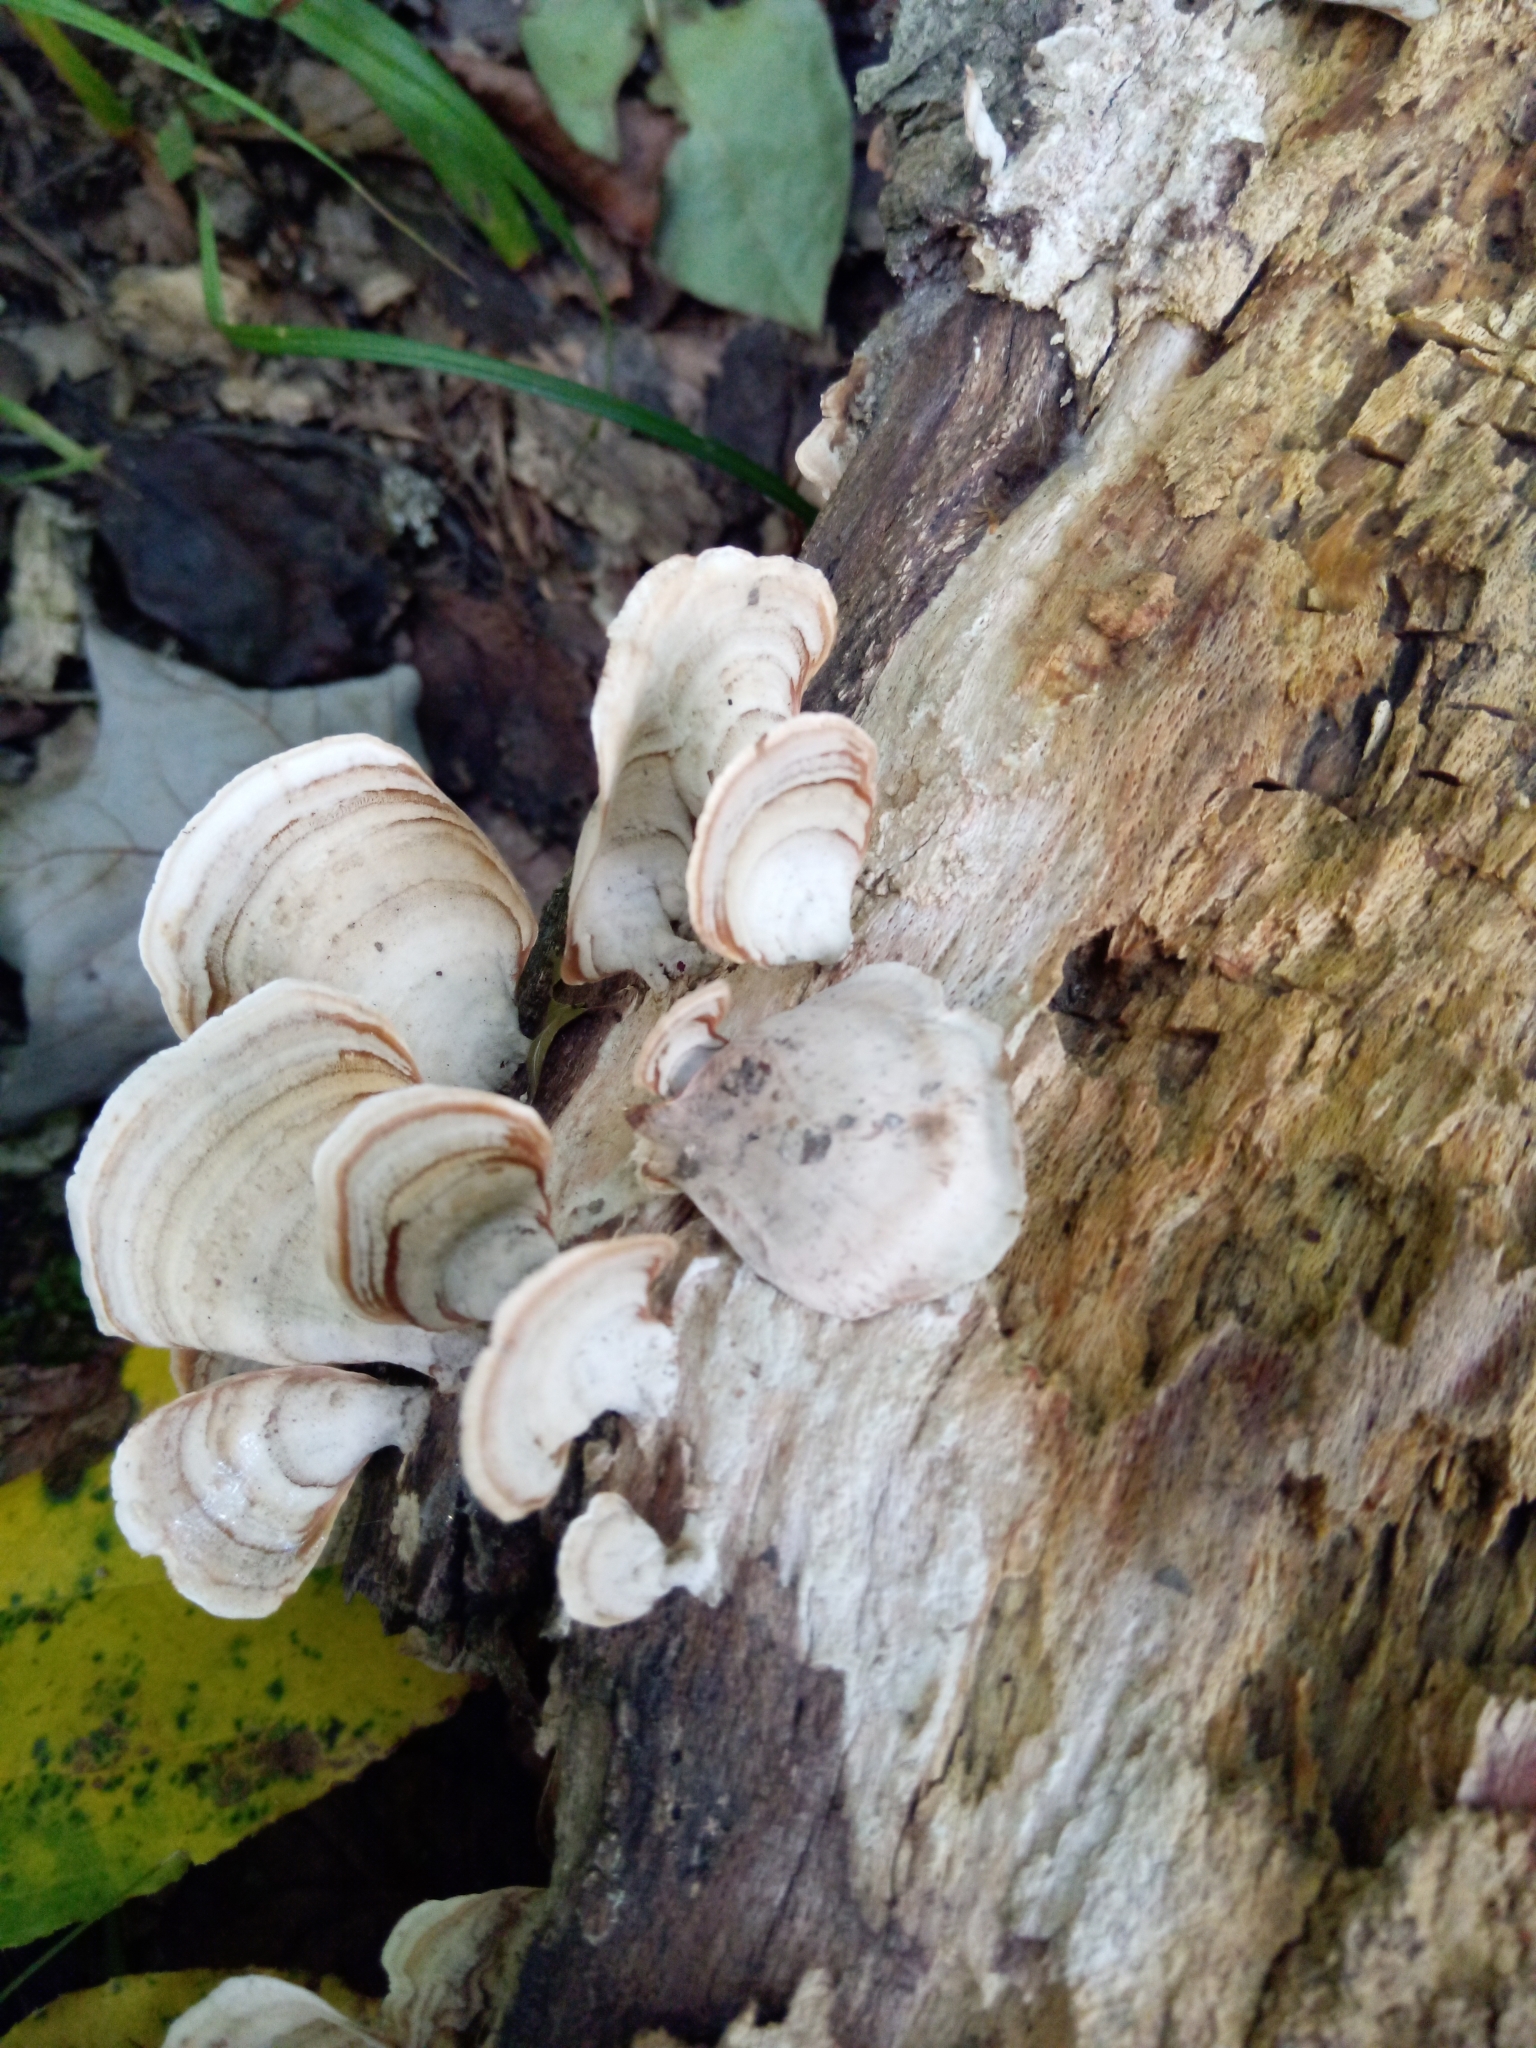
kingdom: Fungi
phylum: Basidiomycota
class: Agaricomycetes
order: Russulales
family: Stereaceae
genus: Stereum
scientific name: Stereum lobatum
